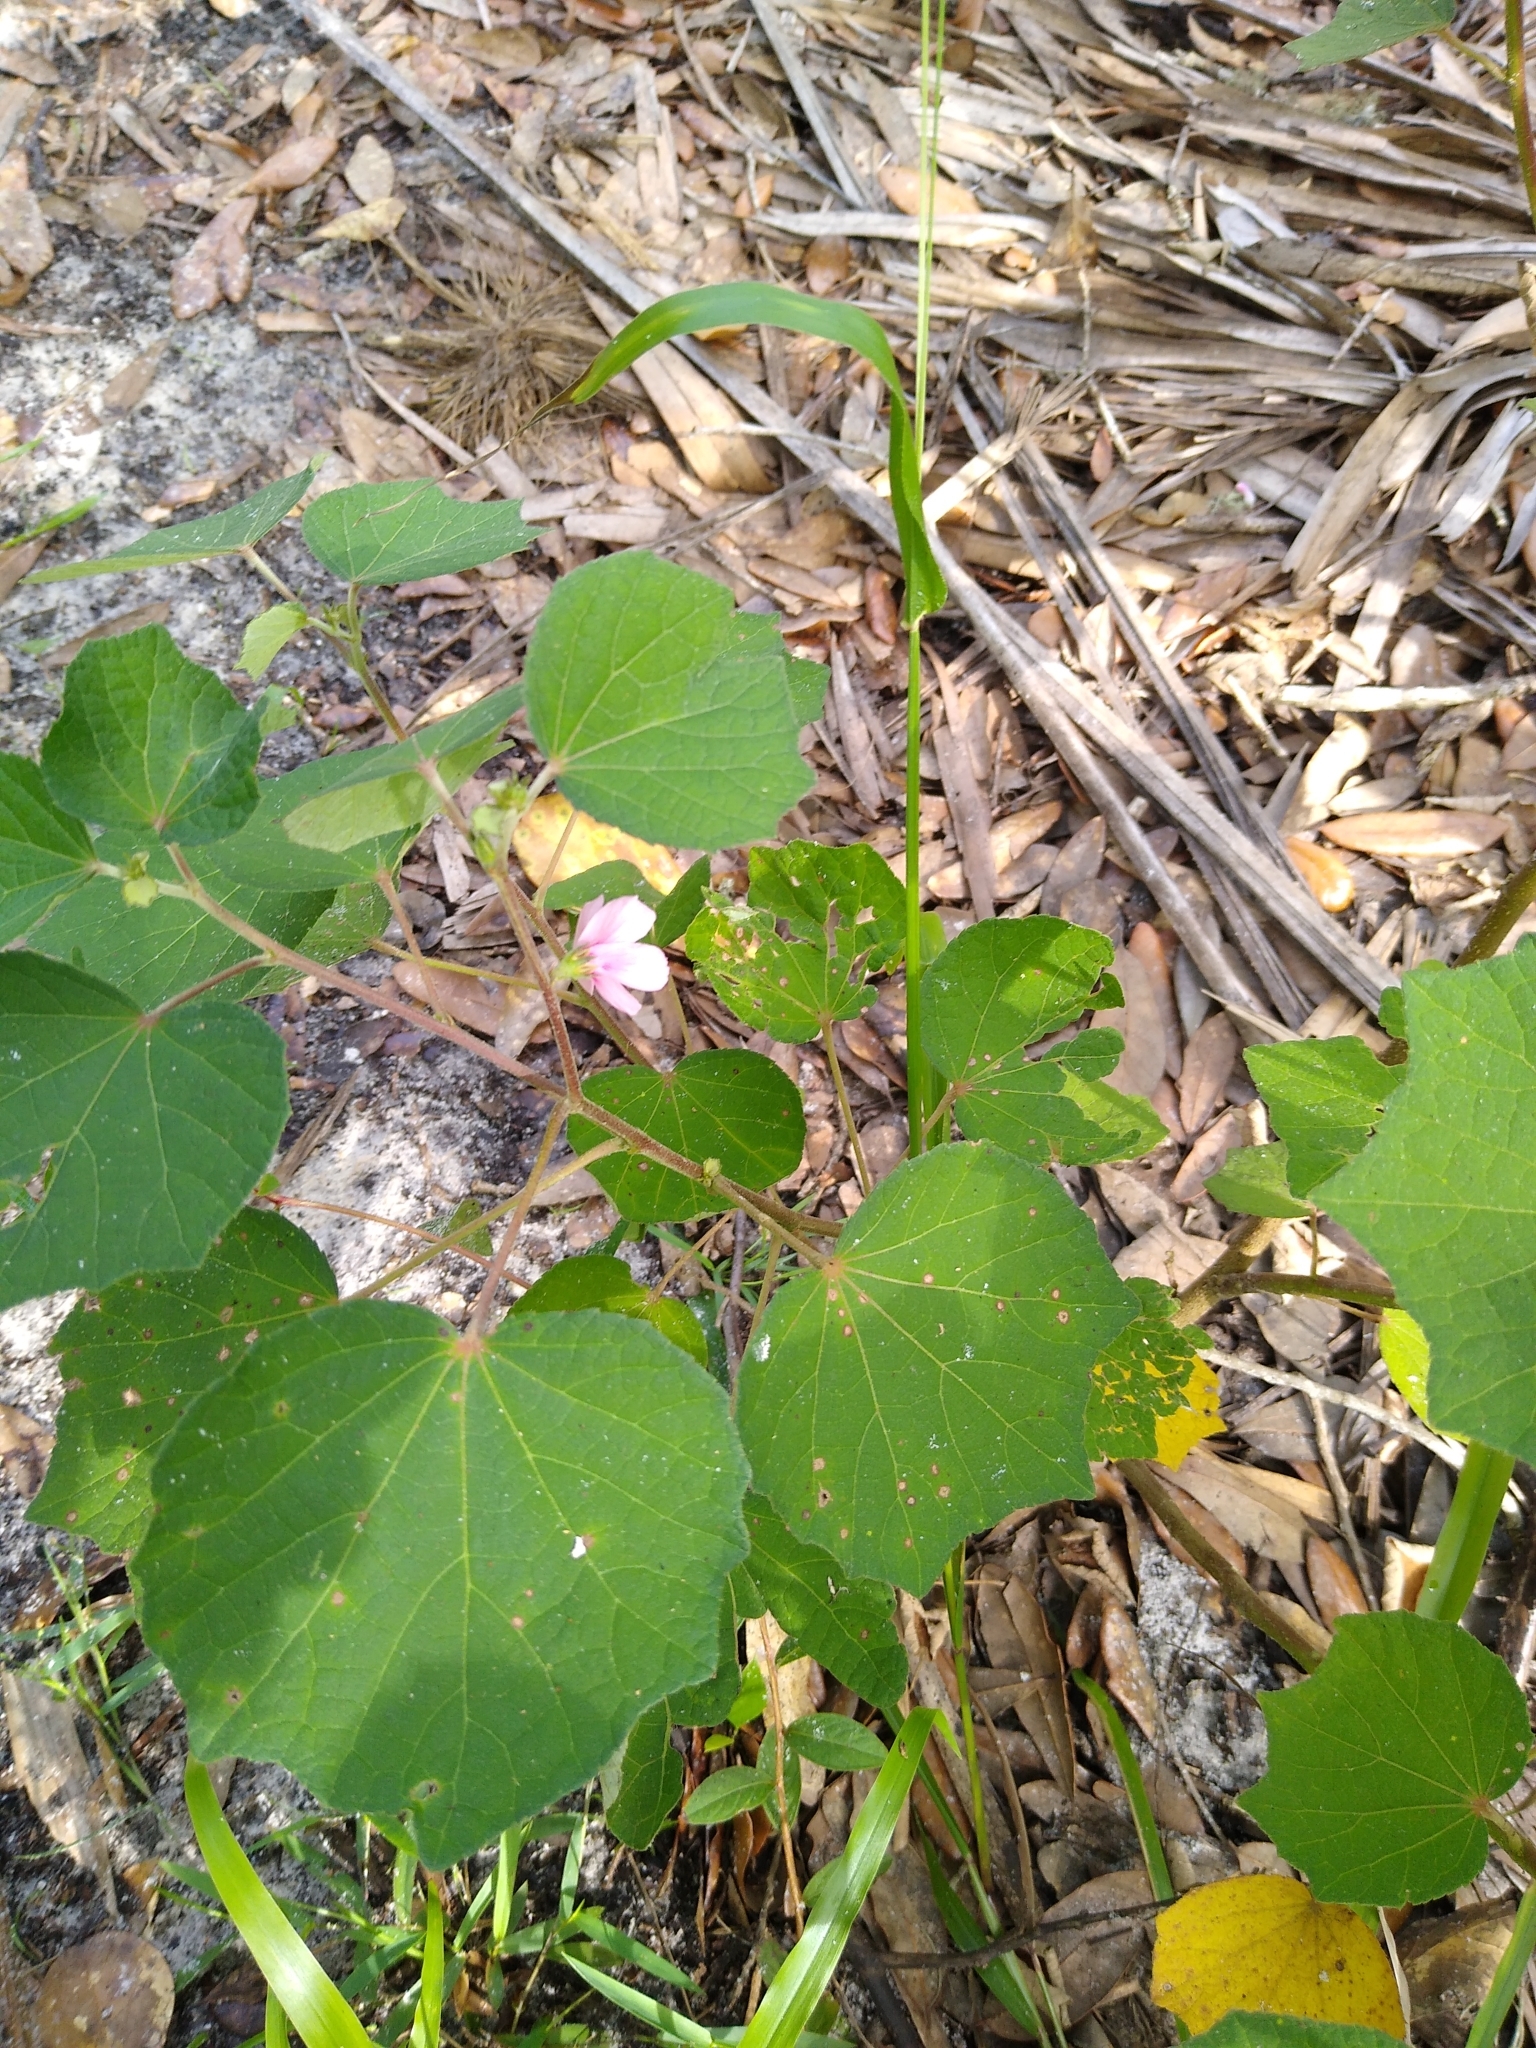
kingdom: Plantae
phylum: Tracheophyta
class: Magnoliopsida
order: Malvales
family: Malvaceae
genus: Urena
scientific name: Urena lobata
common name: Caesarweed
